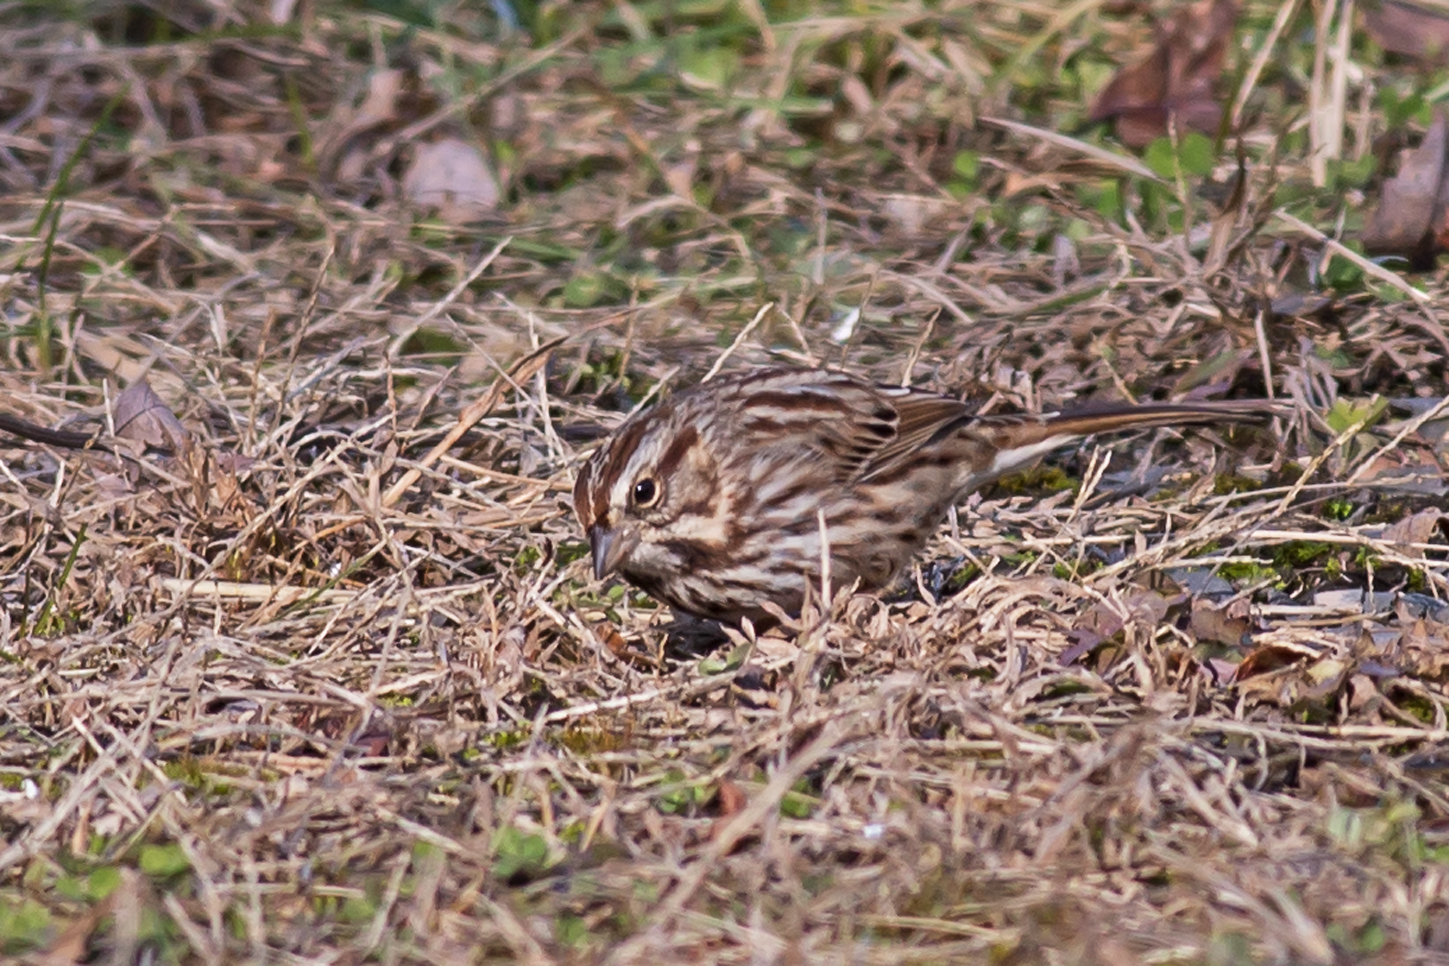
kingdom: Animalia
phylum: Chordata
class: Aves
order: Passeriformes
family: Passerellidae
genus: Melospiza
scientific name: Melospiza melodia
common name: Song sparrow
